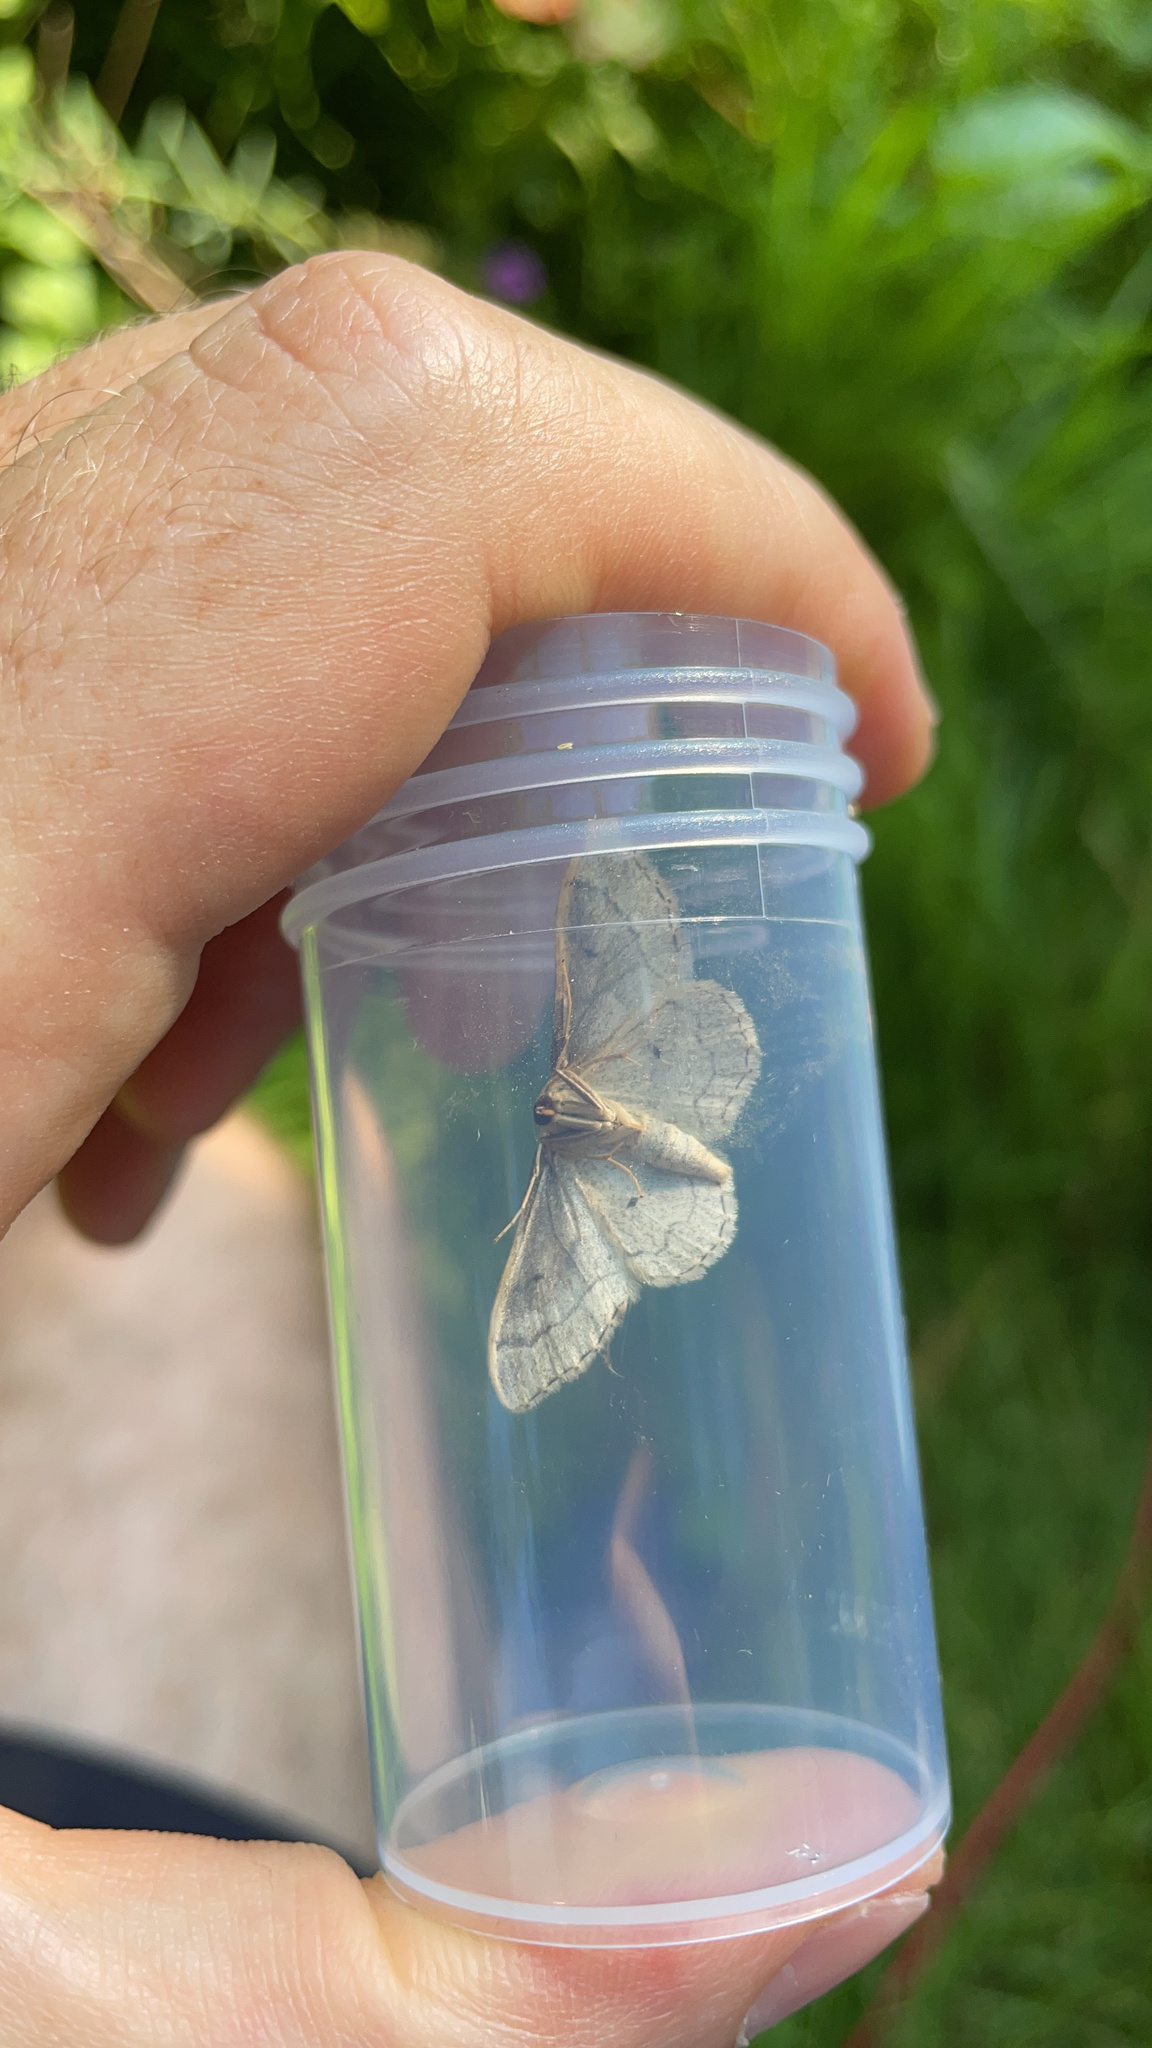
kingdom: Animalia
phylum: Arthropoda
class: Insecta
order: Lepidoptera
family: Geometridae
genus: Idaea
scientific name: Idaea aversata
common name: Riband wave
